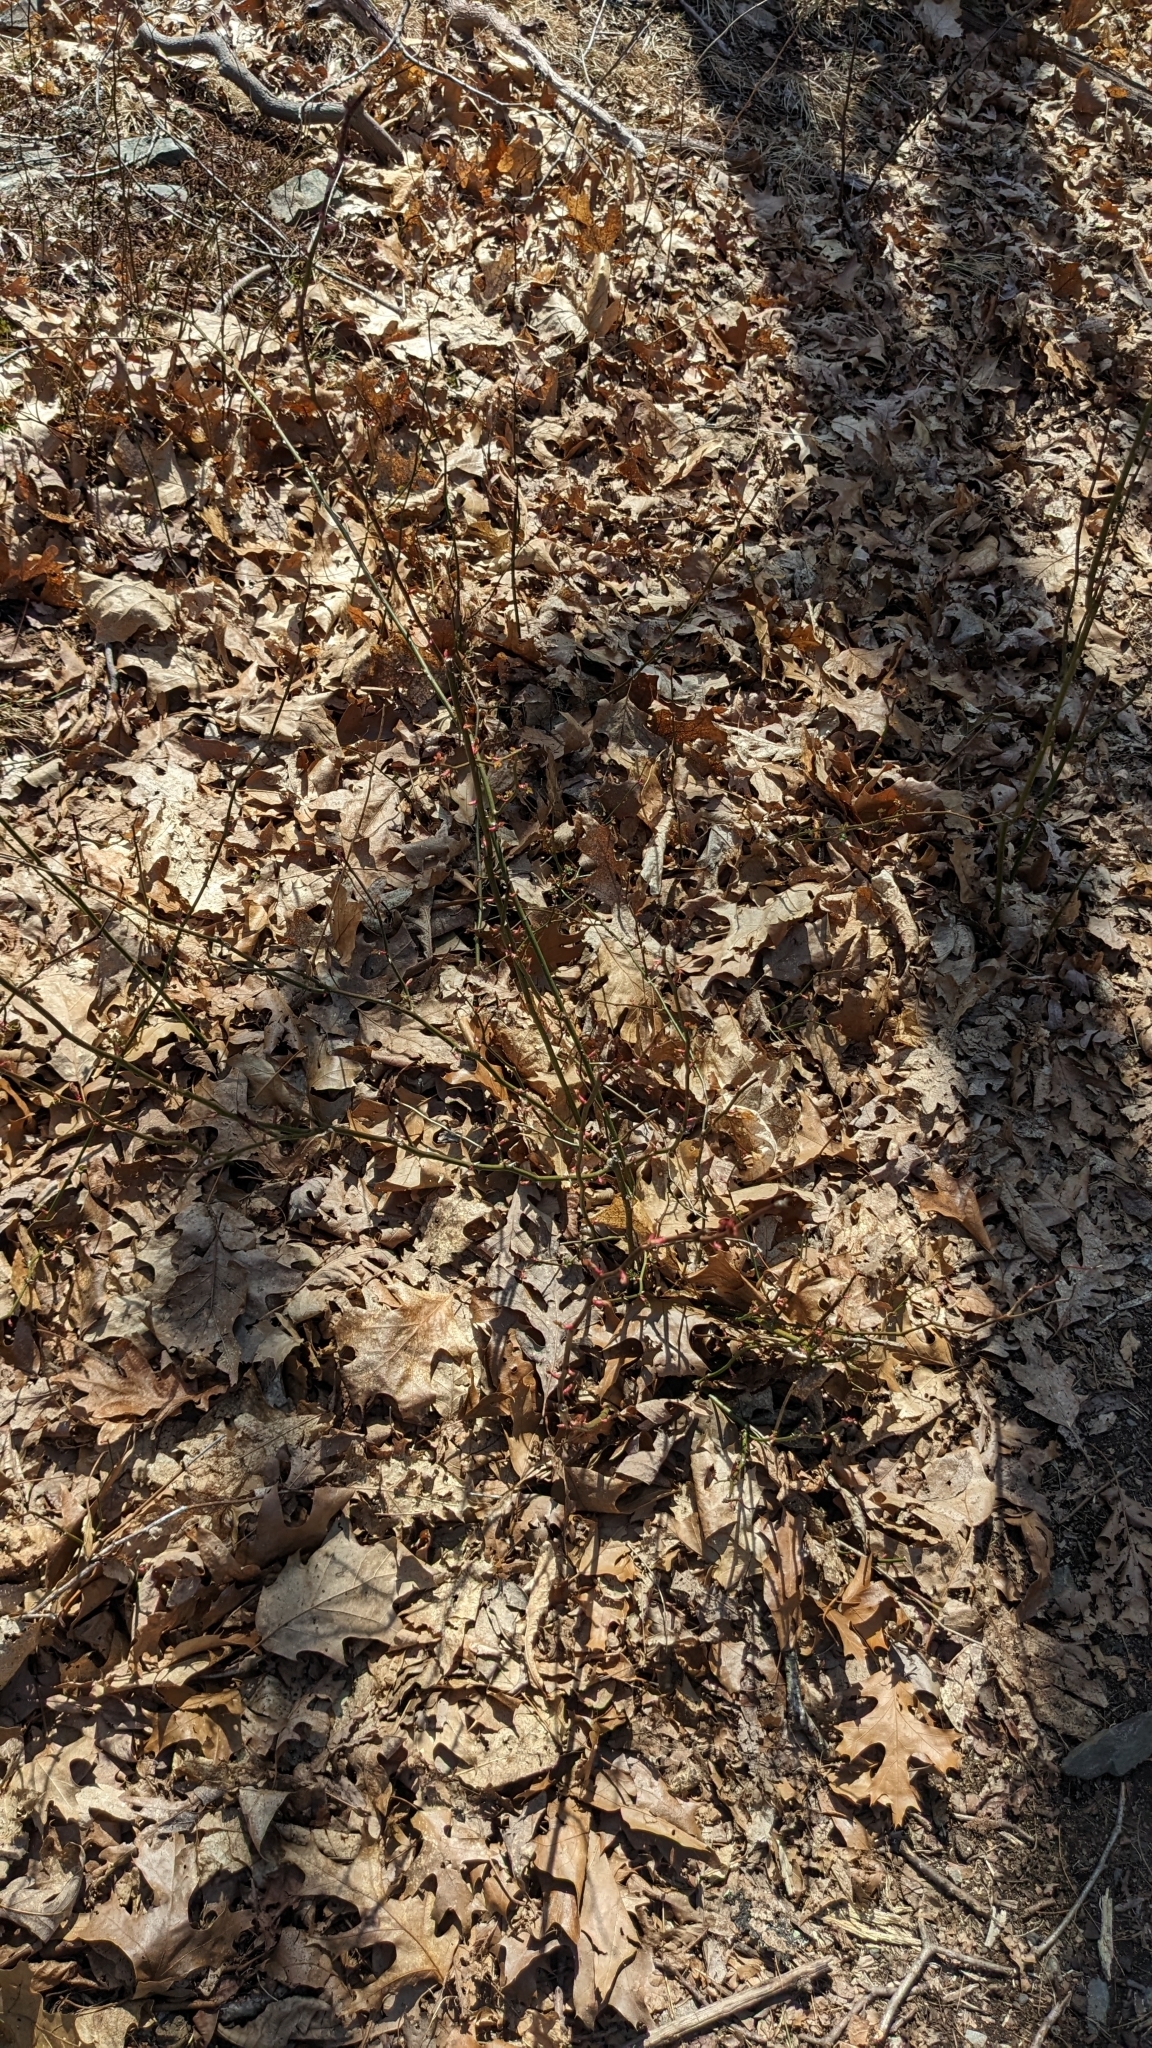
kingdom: Plantae
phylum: Tracheophyta
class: Magnoliopsida
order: Rosales
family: Rosaceae
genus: Rosa
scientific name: Rosa multiflora
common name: Multiflora rose
